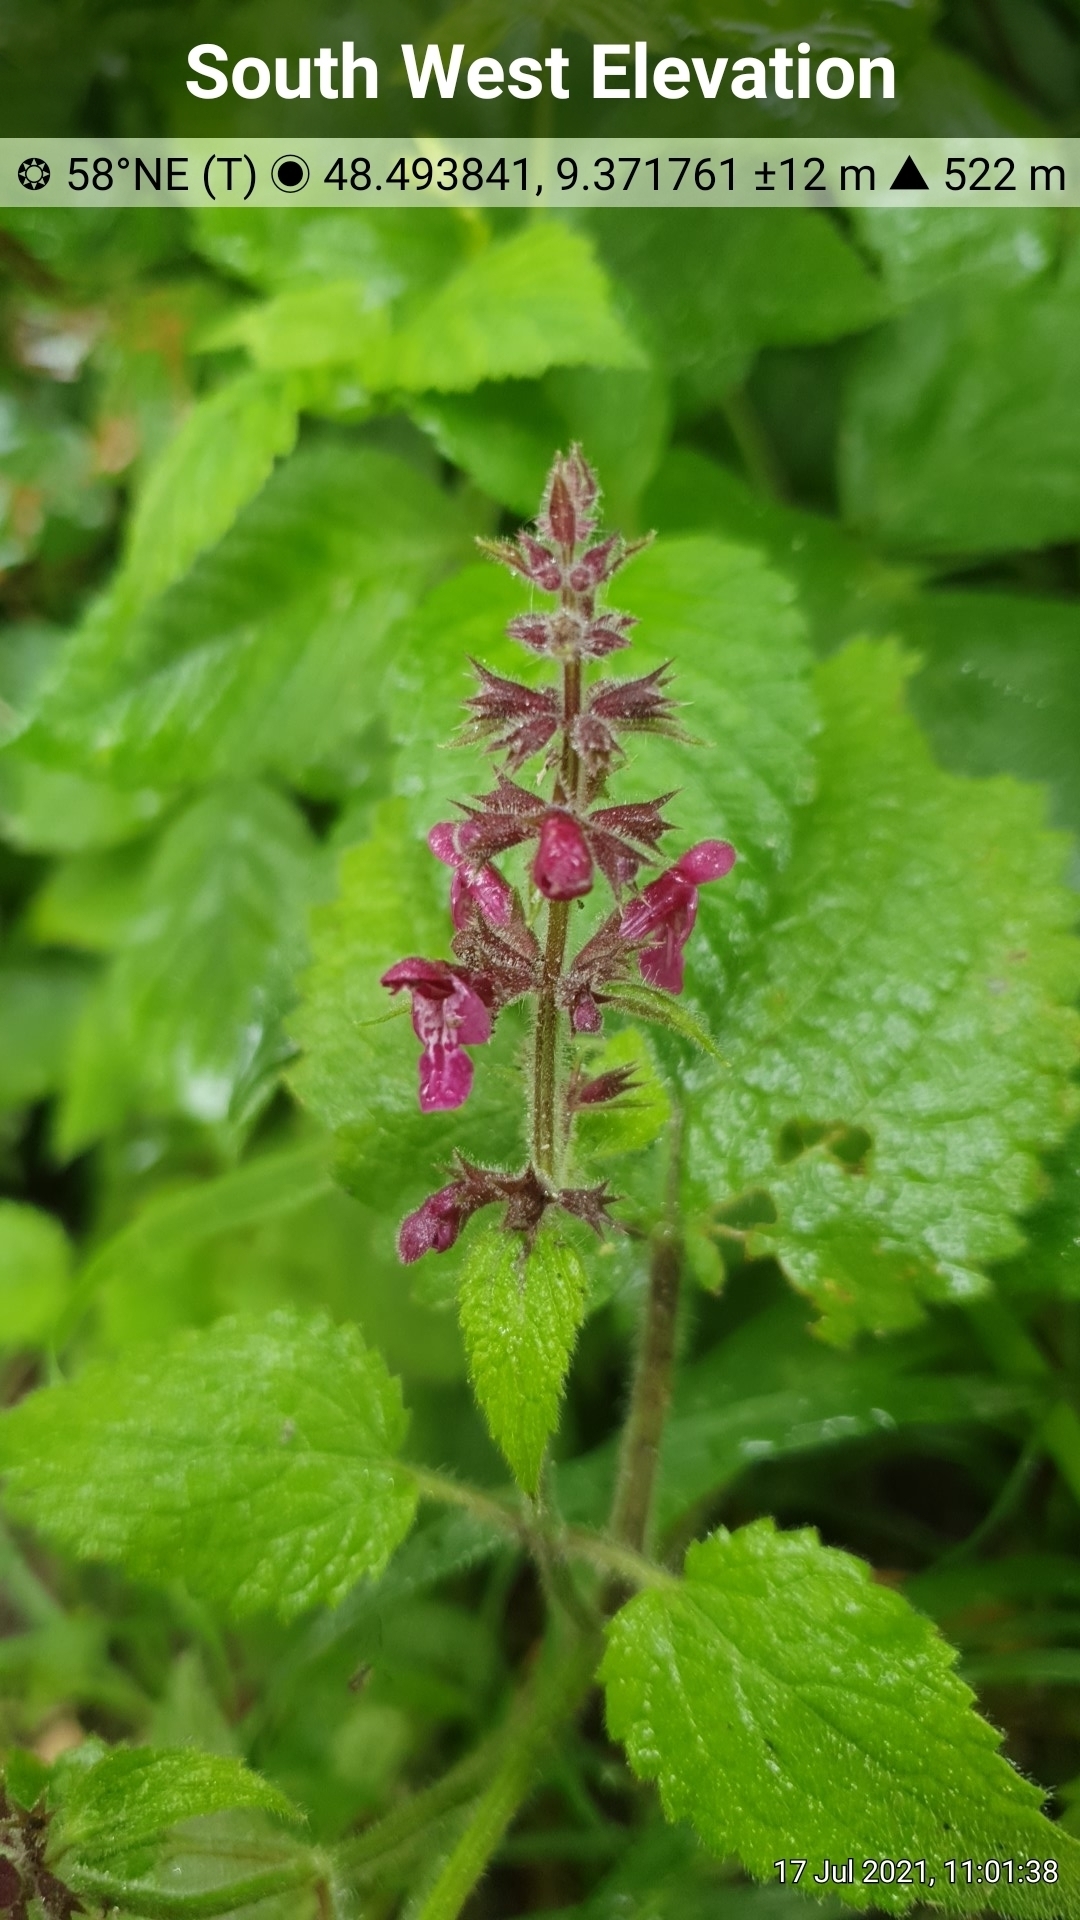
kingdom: Plantae
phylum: Tracheophyta
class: Magnoliopsida
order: Lamiales
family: Lamiaceae
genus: Stachys
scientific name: Stachys sylvatica
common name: Hedge woundwort
